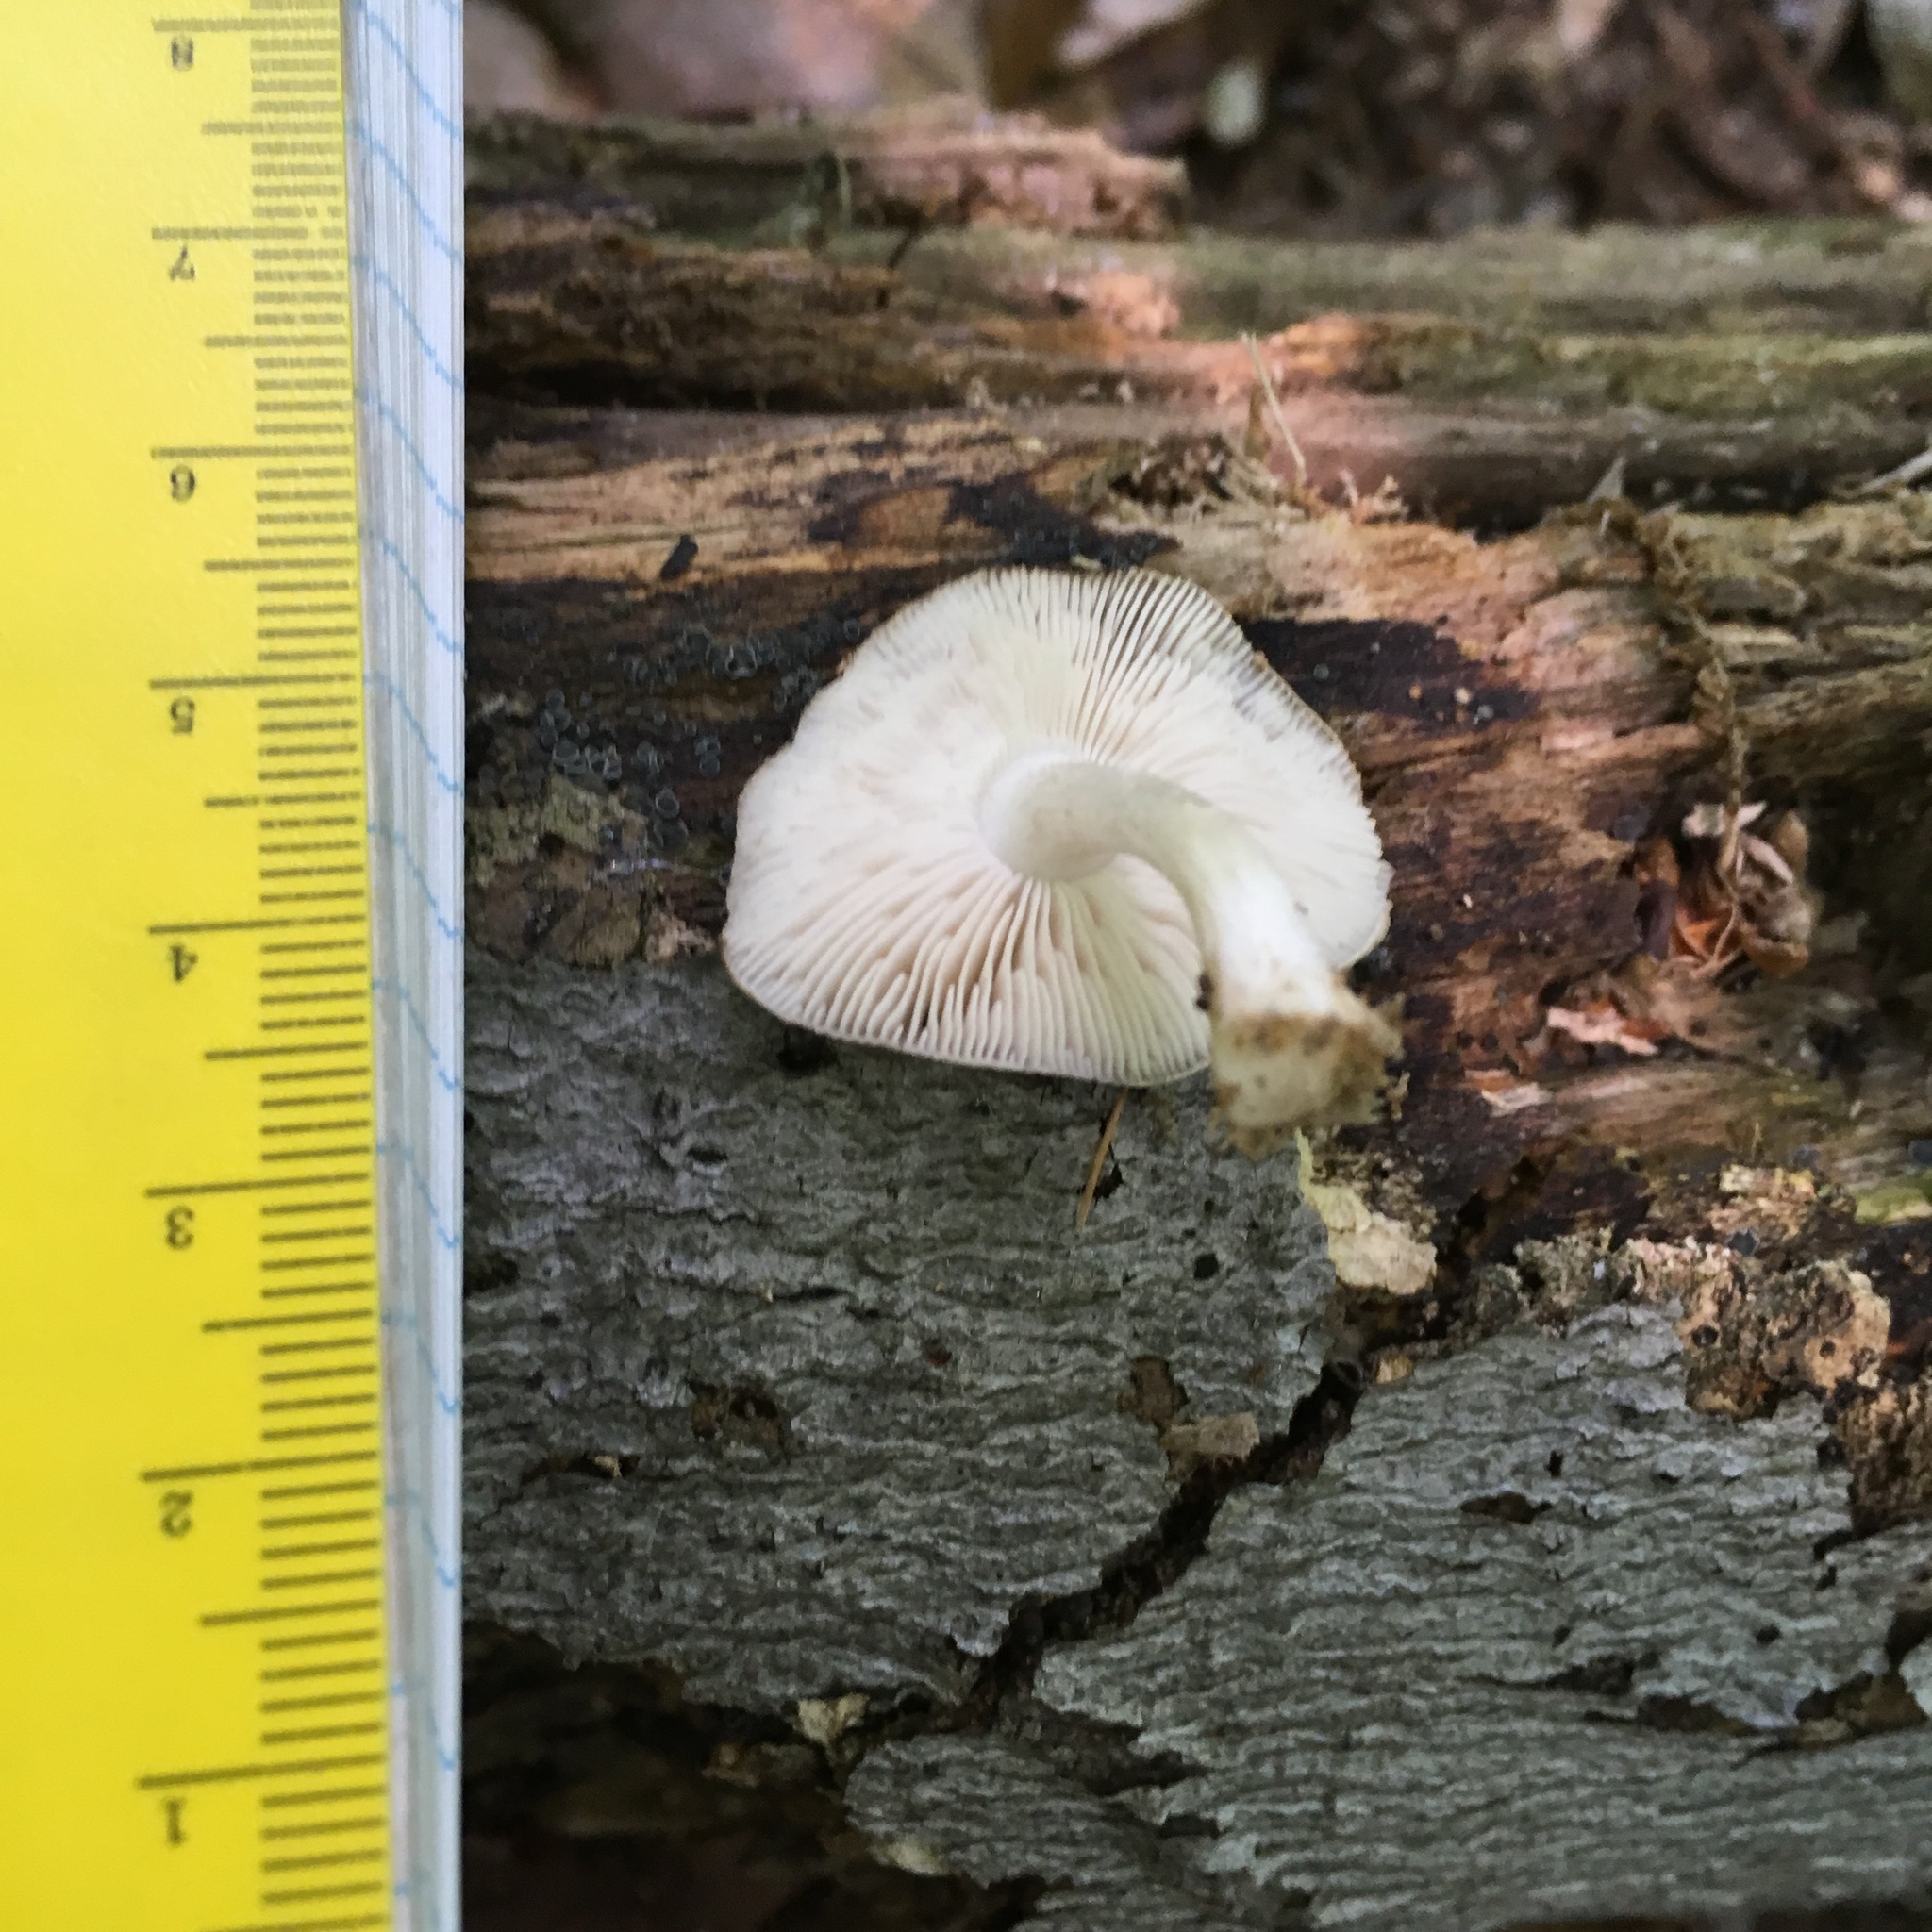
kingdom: Fungi
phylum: Basidiomycota
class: Agaricomycetes
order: Agaricales
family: Pluteaceae
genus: Pluteus
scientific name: Pluteus cervinus
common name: Deer shield
